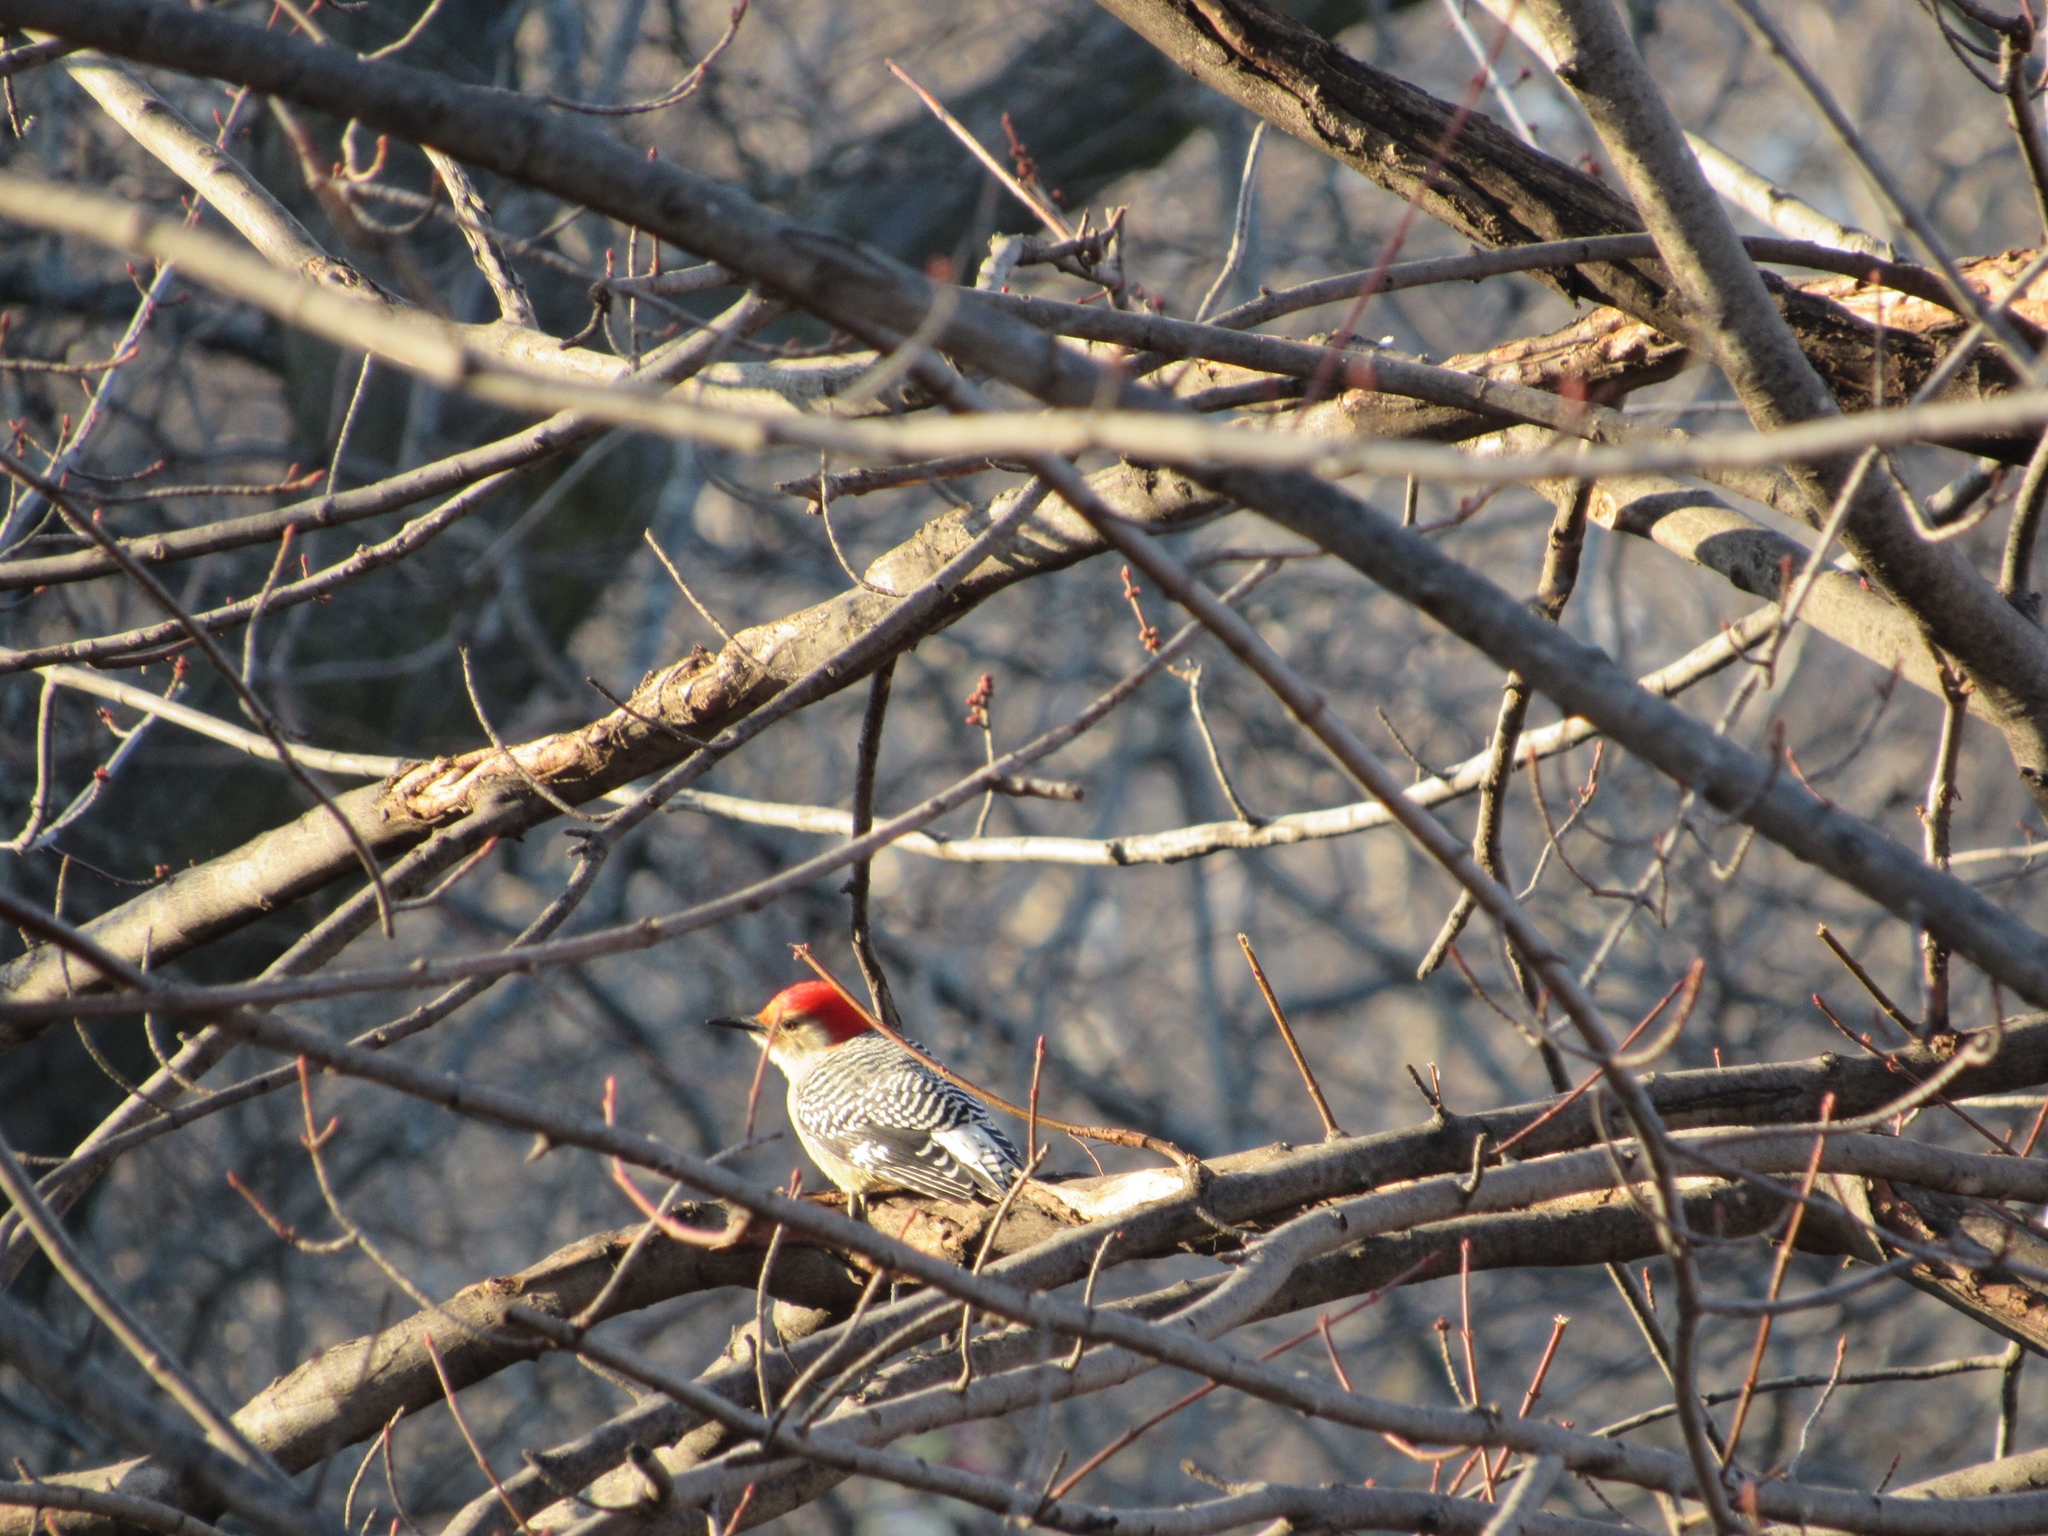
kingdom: Animalia
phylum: Chordata
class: Aves
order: Piciformes
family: Picidae
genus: Melanerpes
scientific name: Melanerpes carolinus
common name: Red-bellied woodpecker
